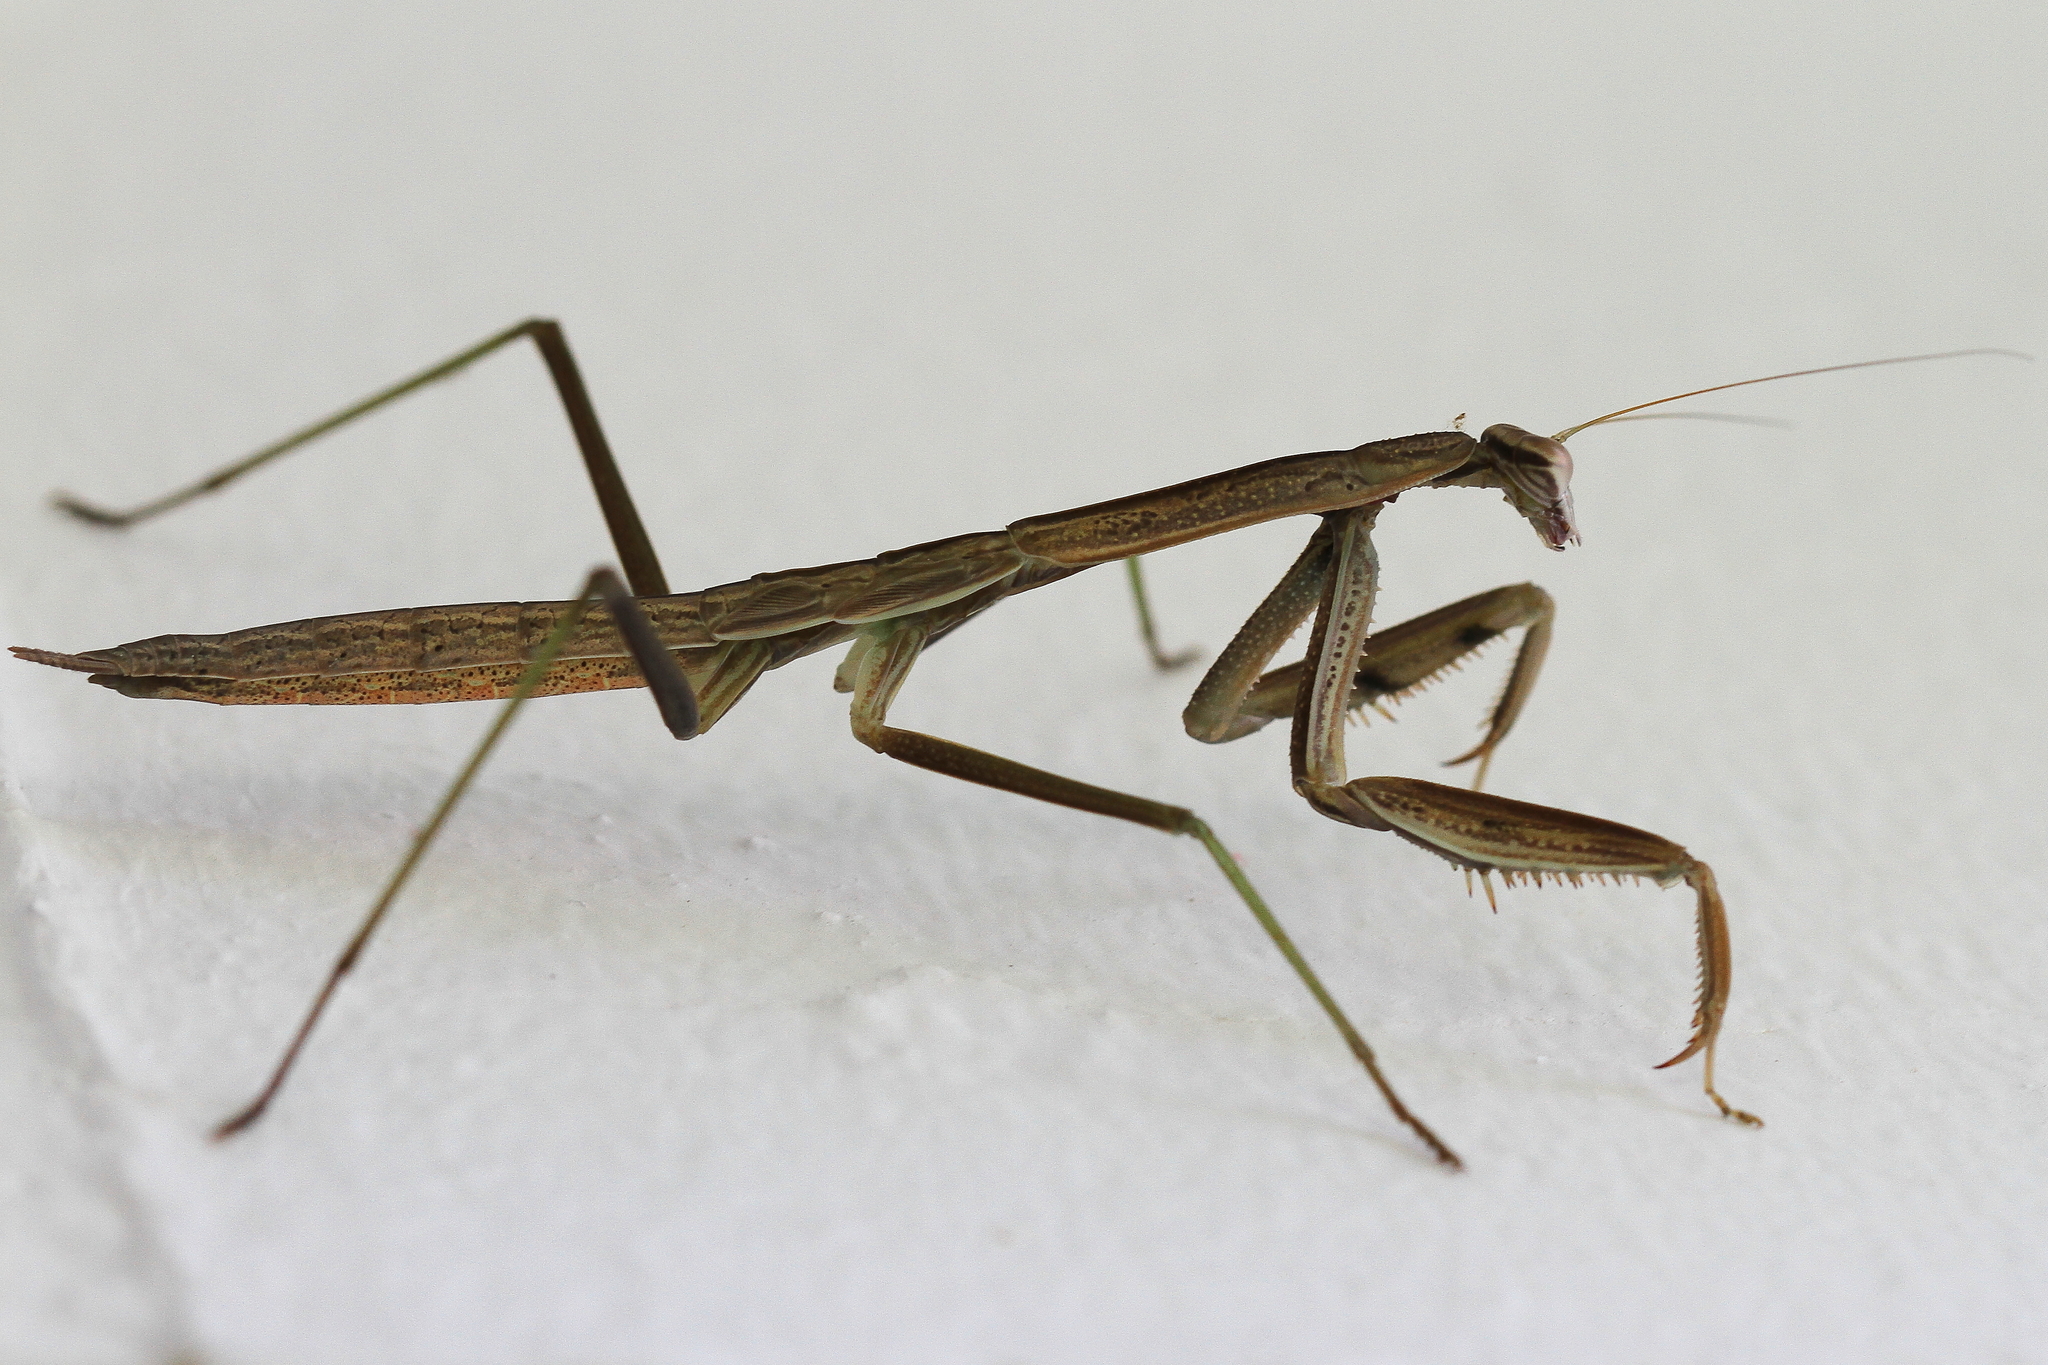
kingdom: Animalia
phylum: Arthropoda
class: Insecta
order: Mantodea
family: Mantidae
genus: Tenodera
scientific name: Tenodera sinensis
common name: Chinese mantis
